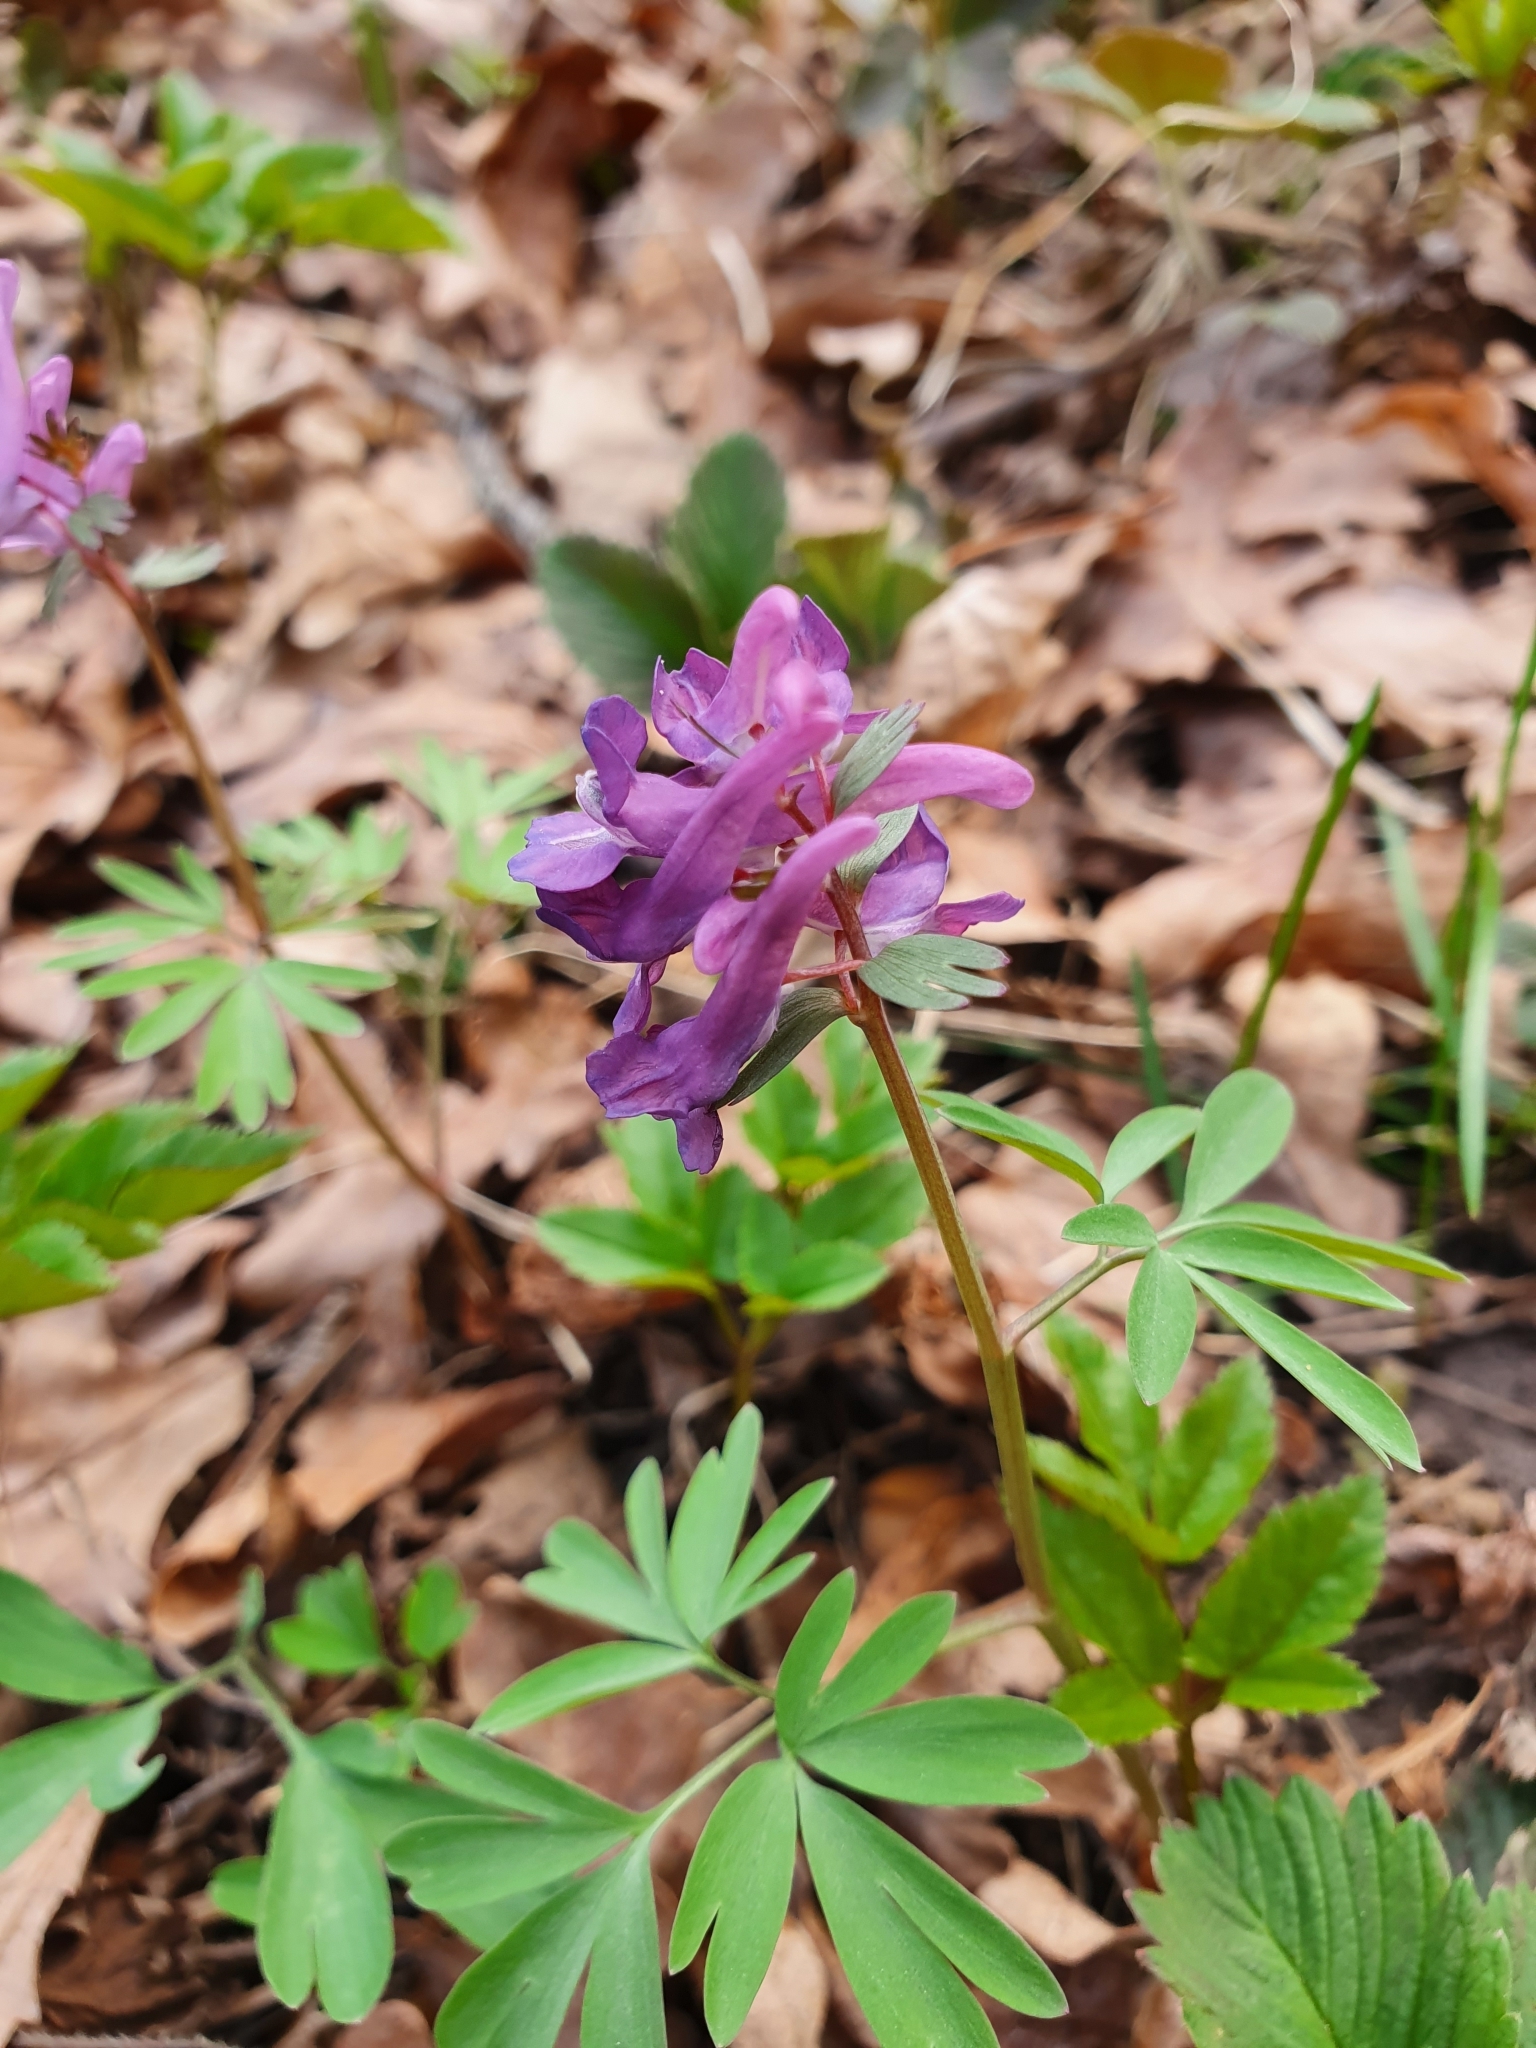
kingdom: Plantae
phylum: Tracheophyta
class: Magnoliopsida
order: Ranunculales
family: Papaveraceae
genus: Corydalis
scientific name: Corydalis solida
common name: Bird-in-a-bush
